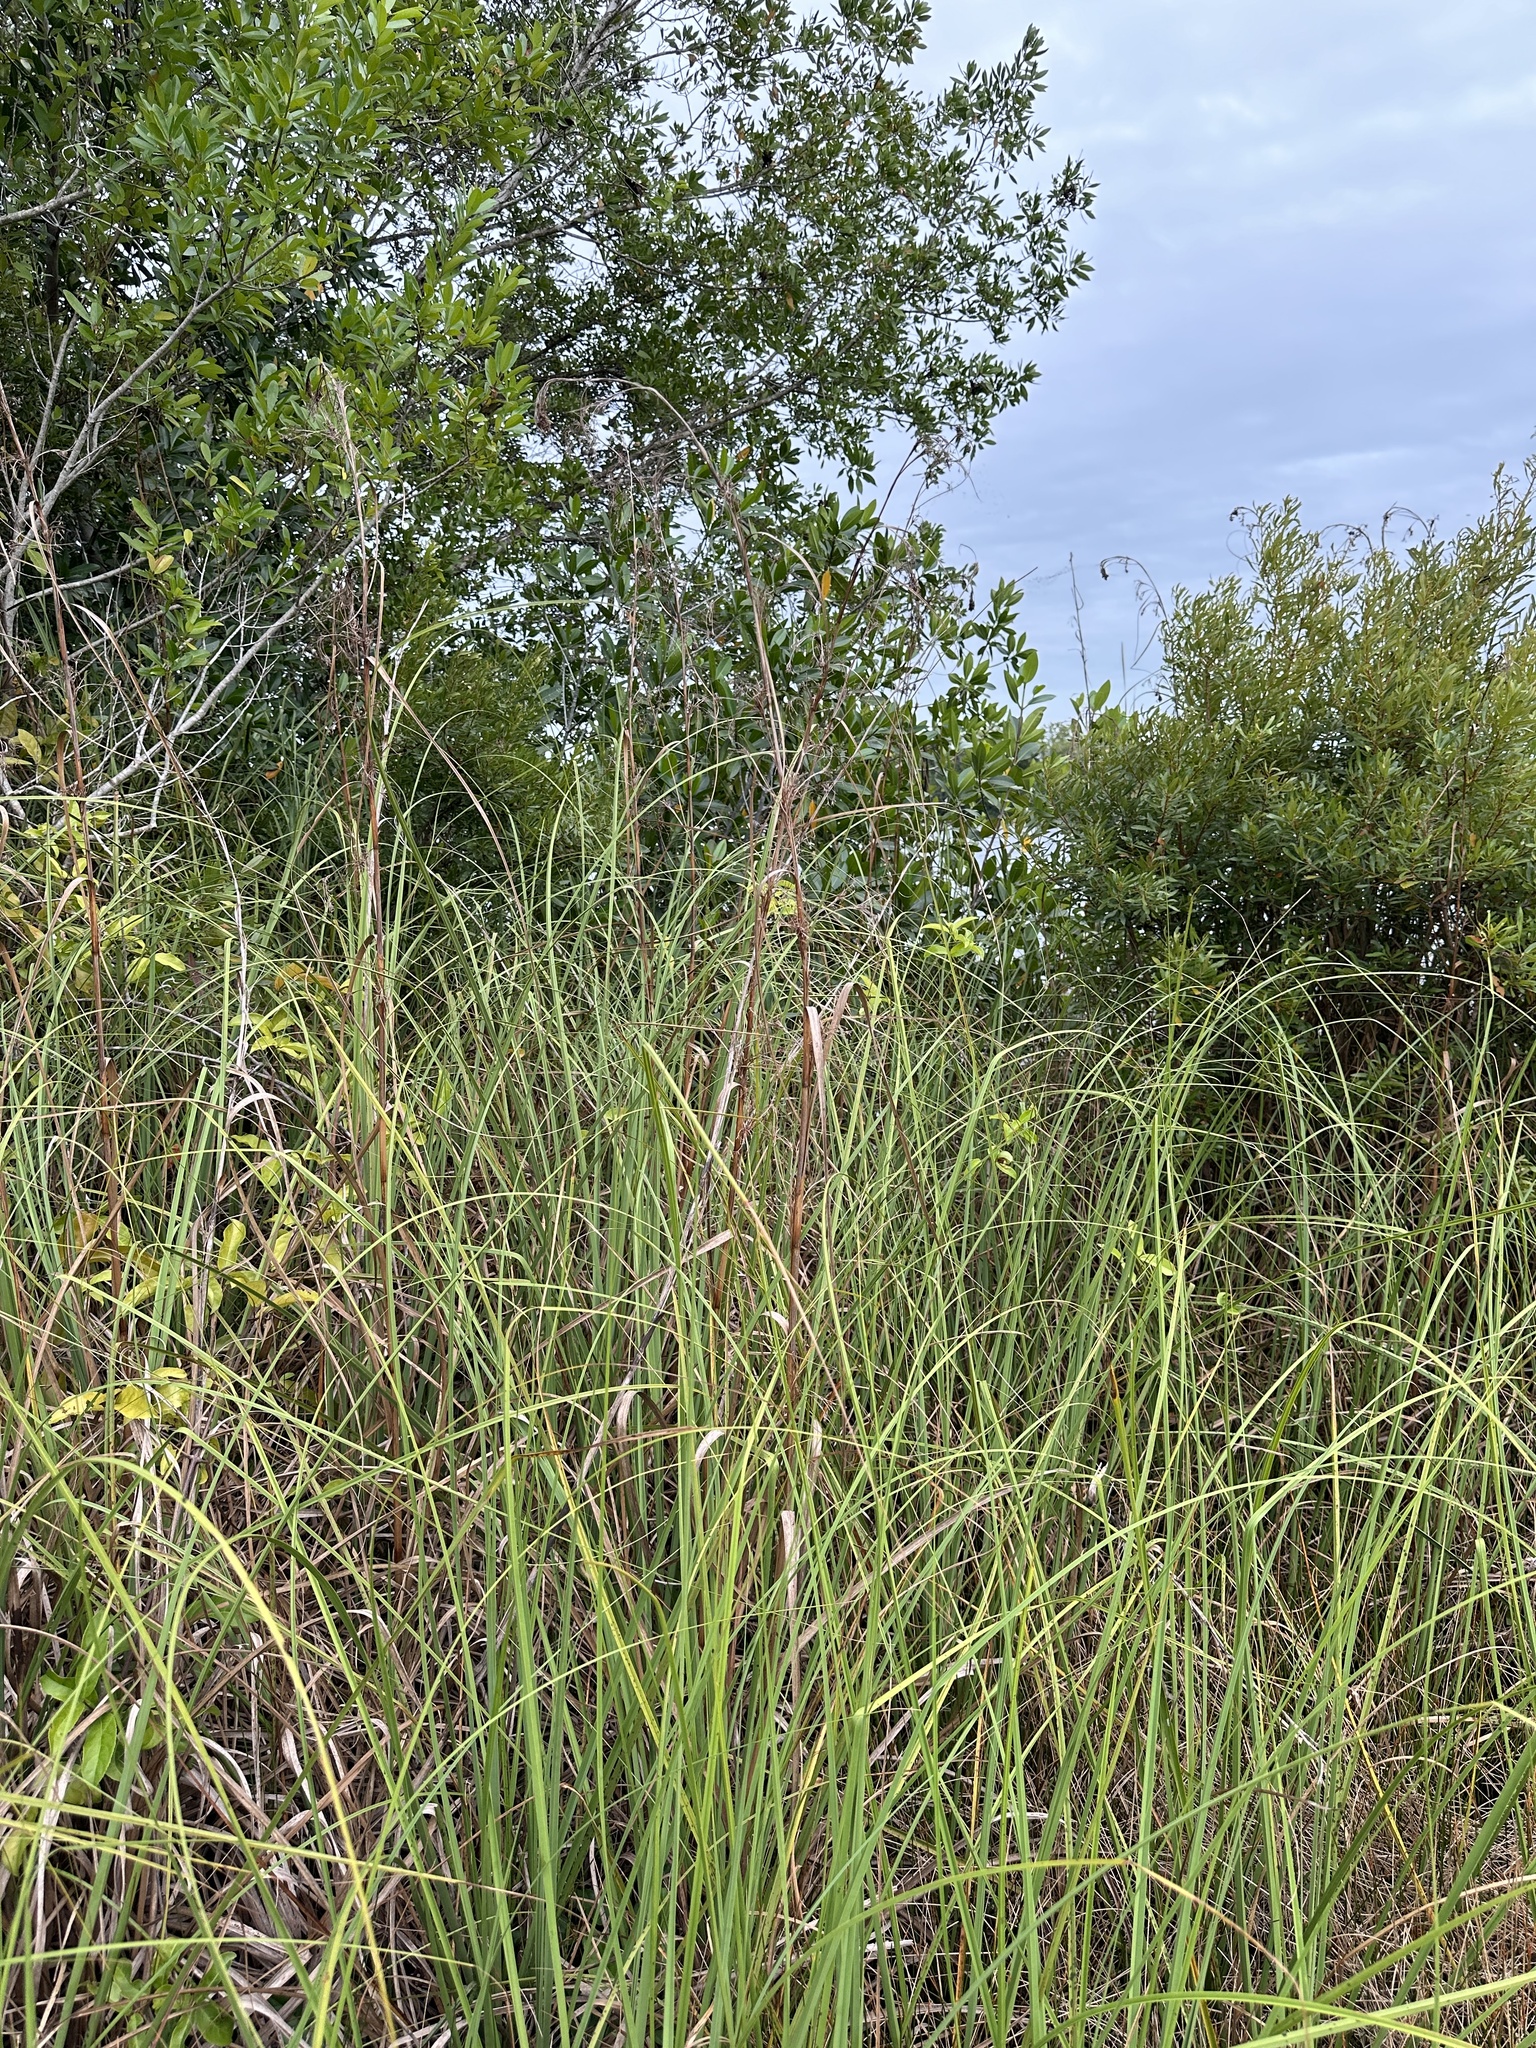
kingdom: Plantae
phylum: Tracheophyta
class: Liliopsida
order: Poales
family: Cyperaceae
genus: Cladium
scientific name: Cladium mariscus
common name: Great fen-sedge
